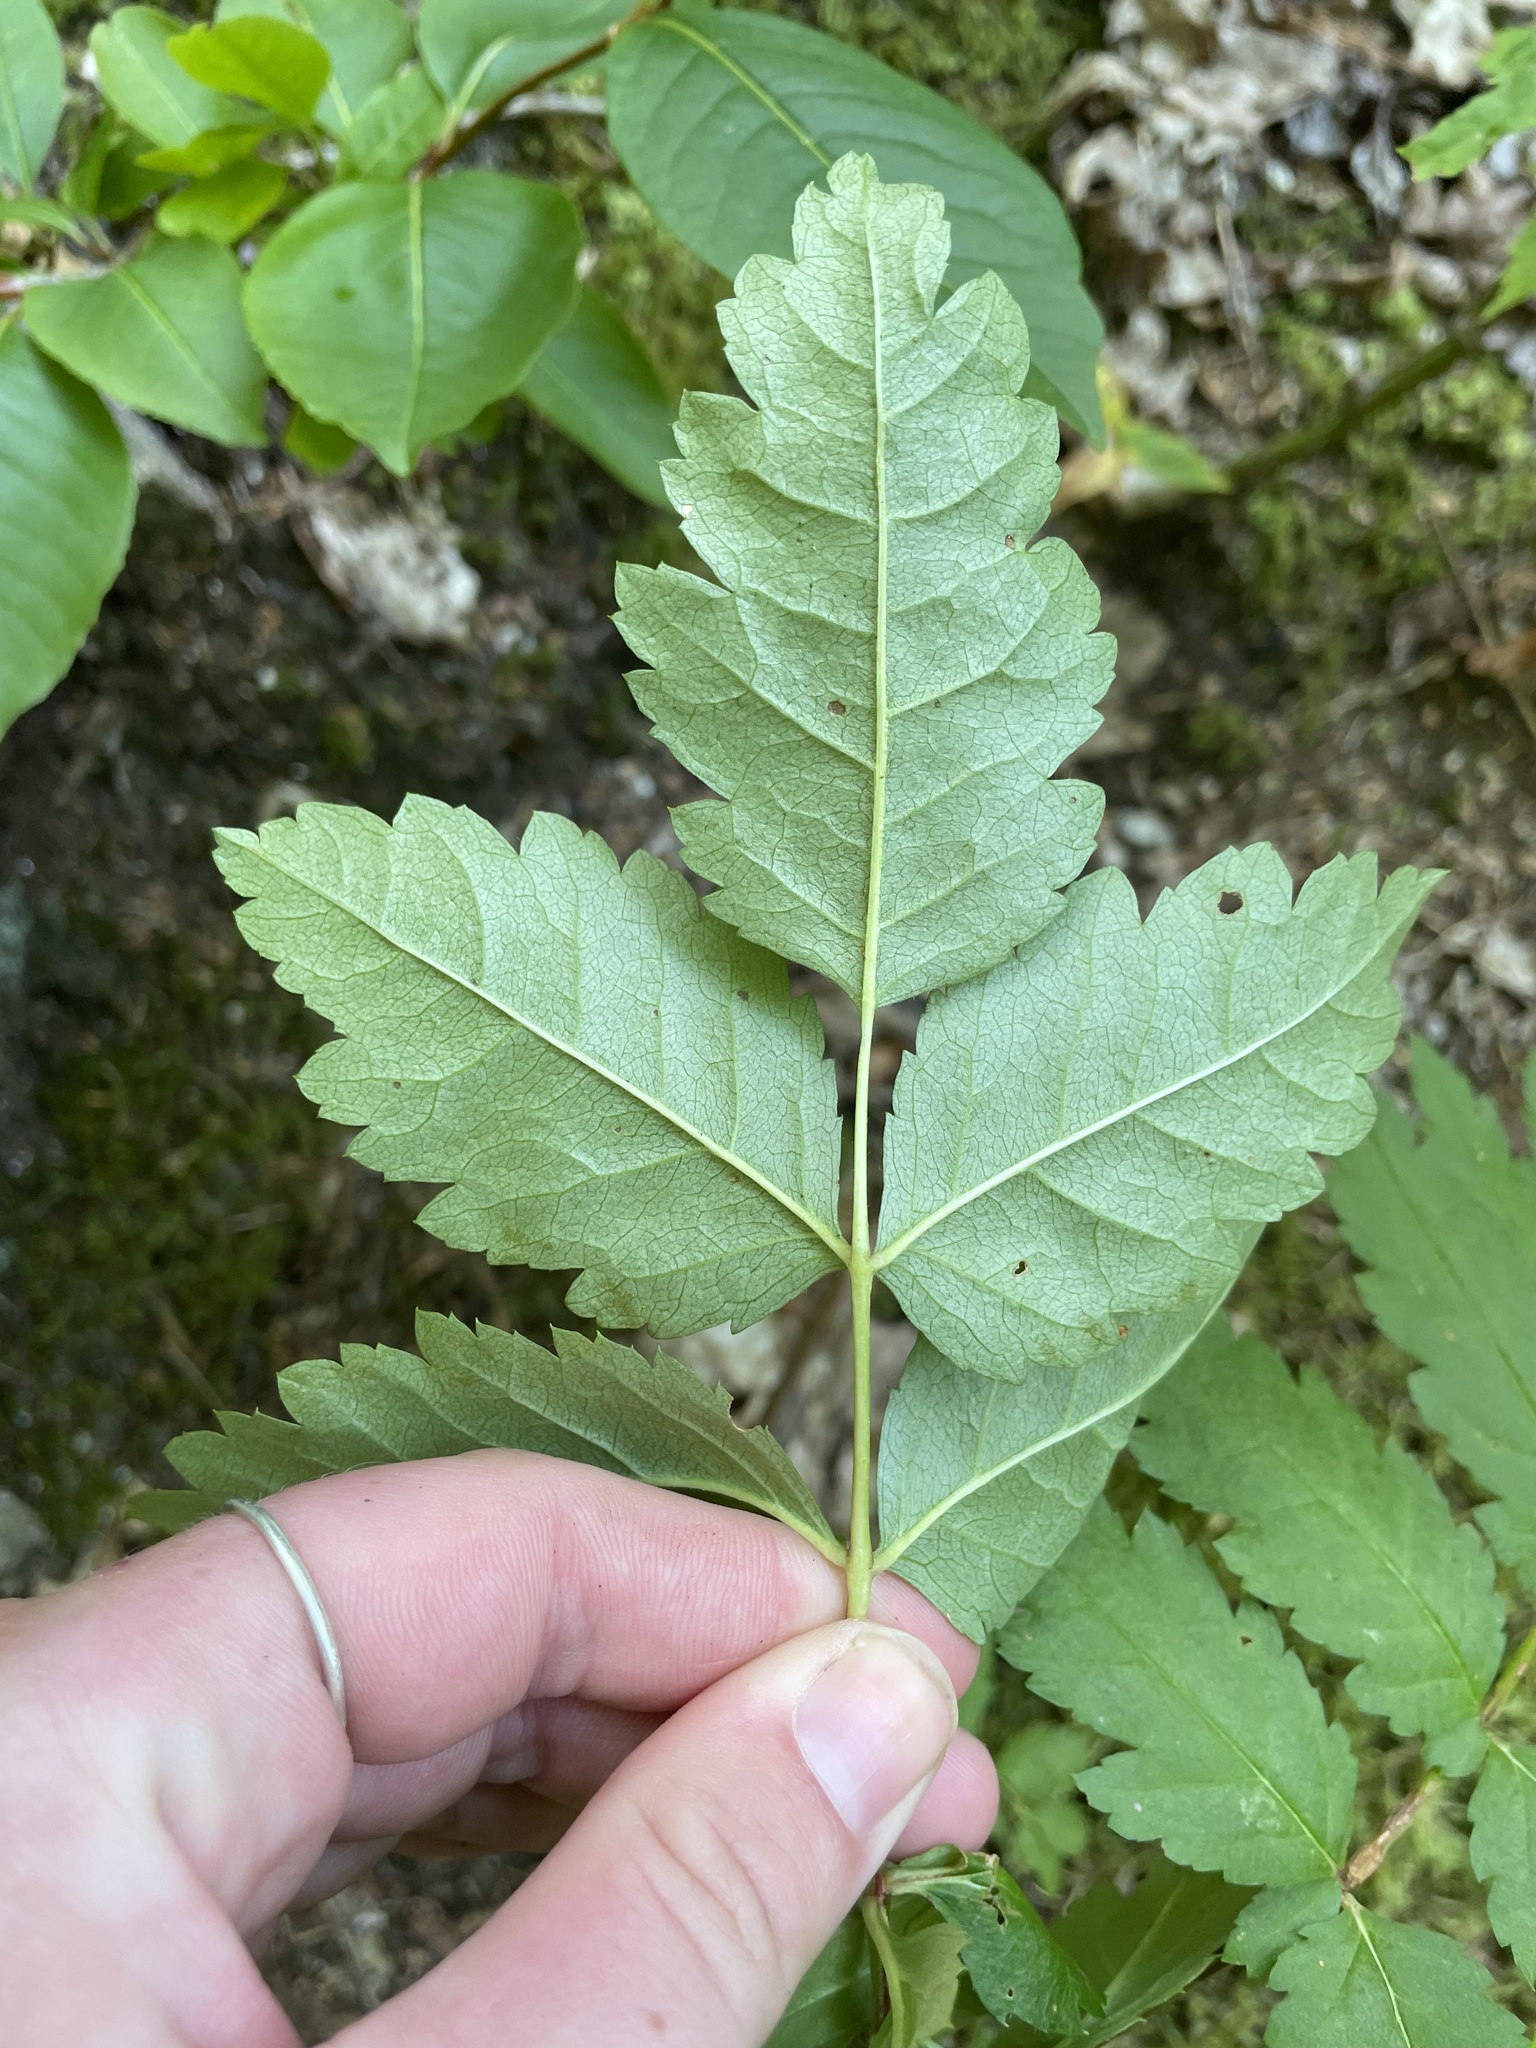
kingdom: Plantae
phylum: Tracheophyta
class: Magnoliopsida
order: Rosales
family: Rosaceae
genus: Sorbus
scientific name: Sorbus decora
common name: Northern mountain-ash
